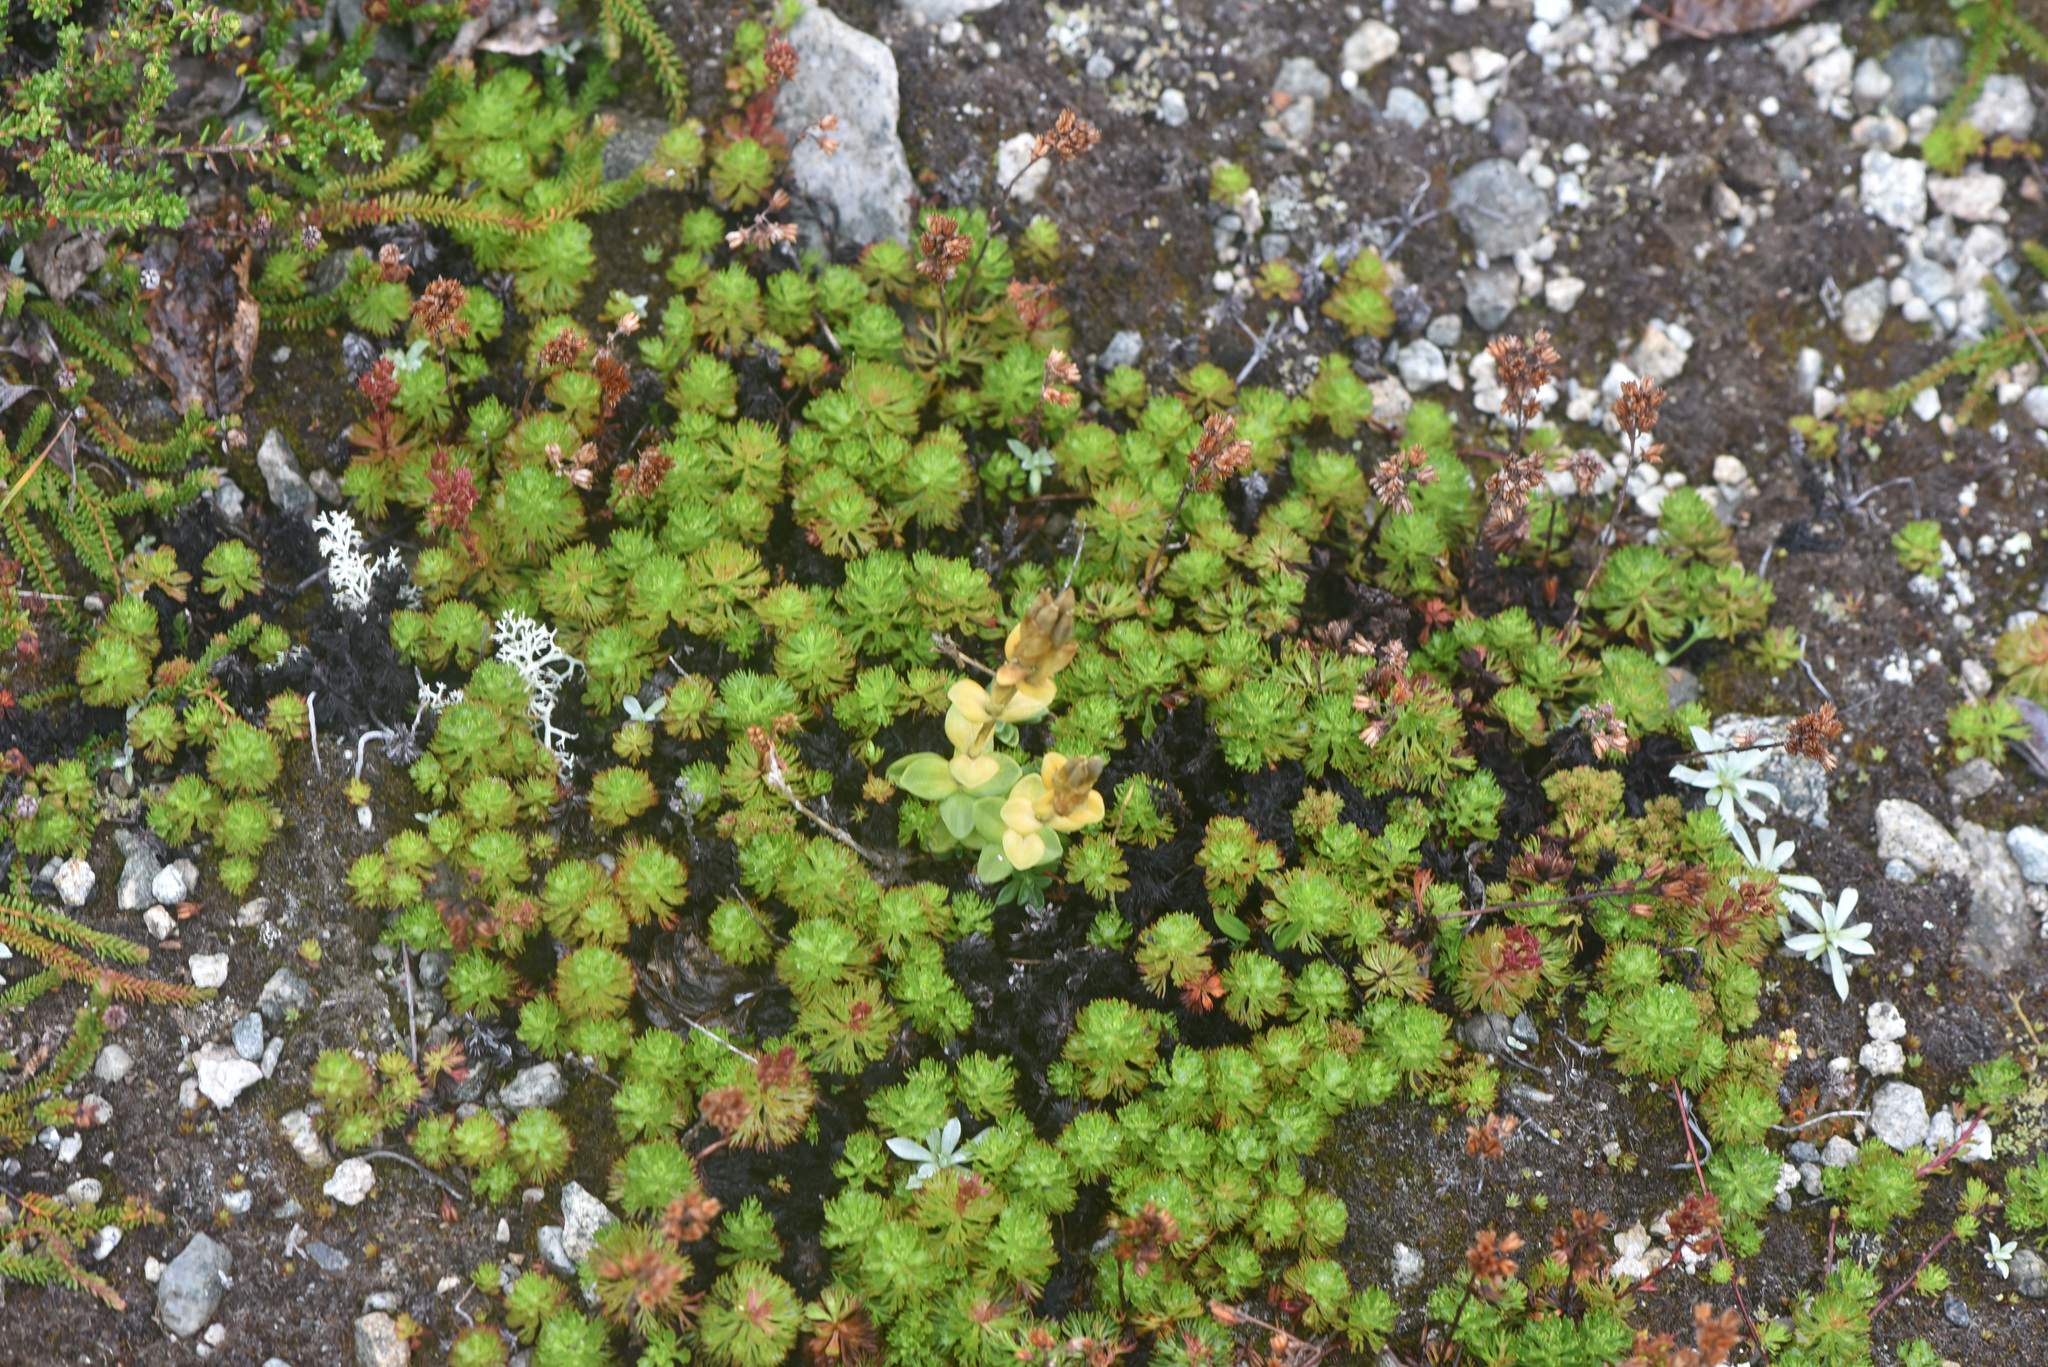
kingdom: Plantae
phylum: Tracheophyta
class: Magnoliopsida
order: Gentianales
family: Gentianaceae
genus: Gentiana
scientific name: Gentiana glauca
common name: Alpine gentian
